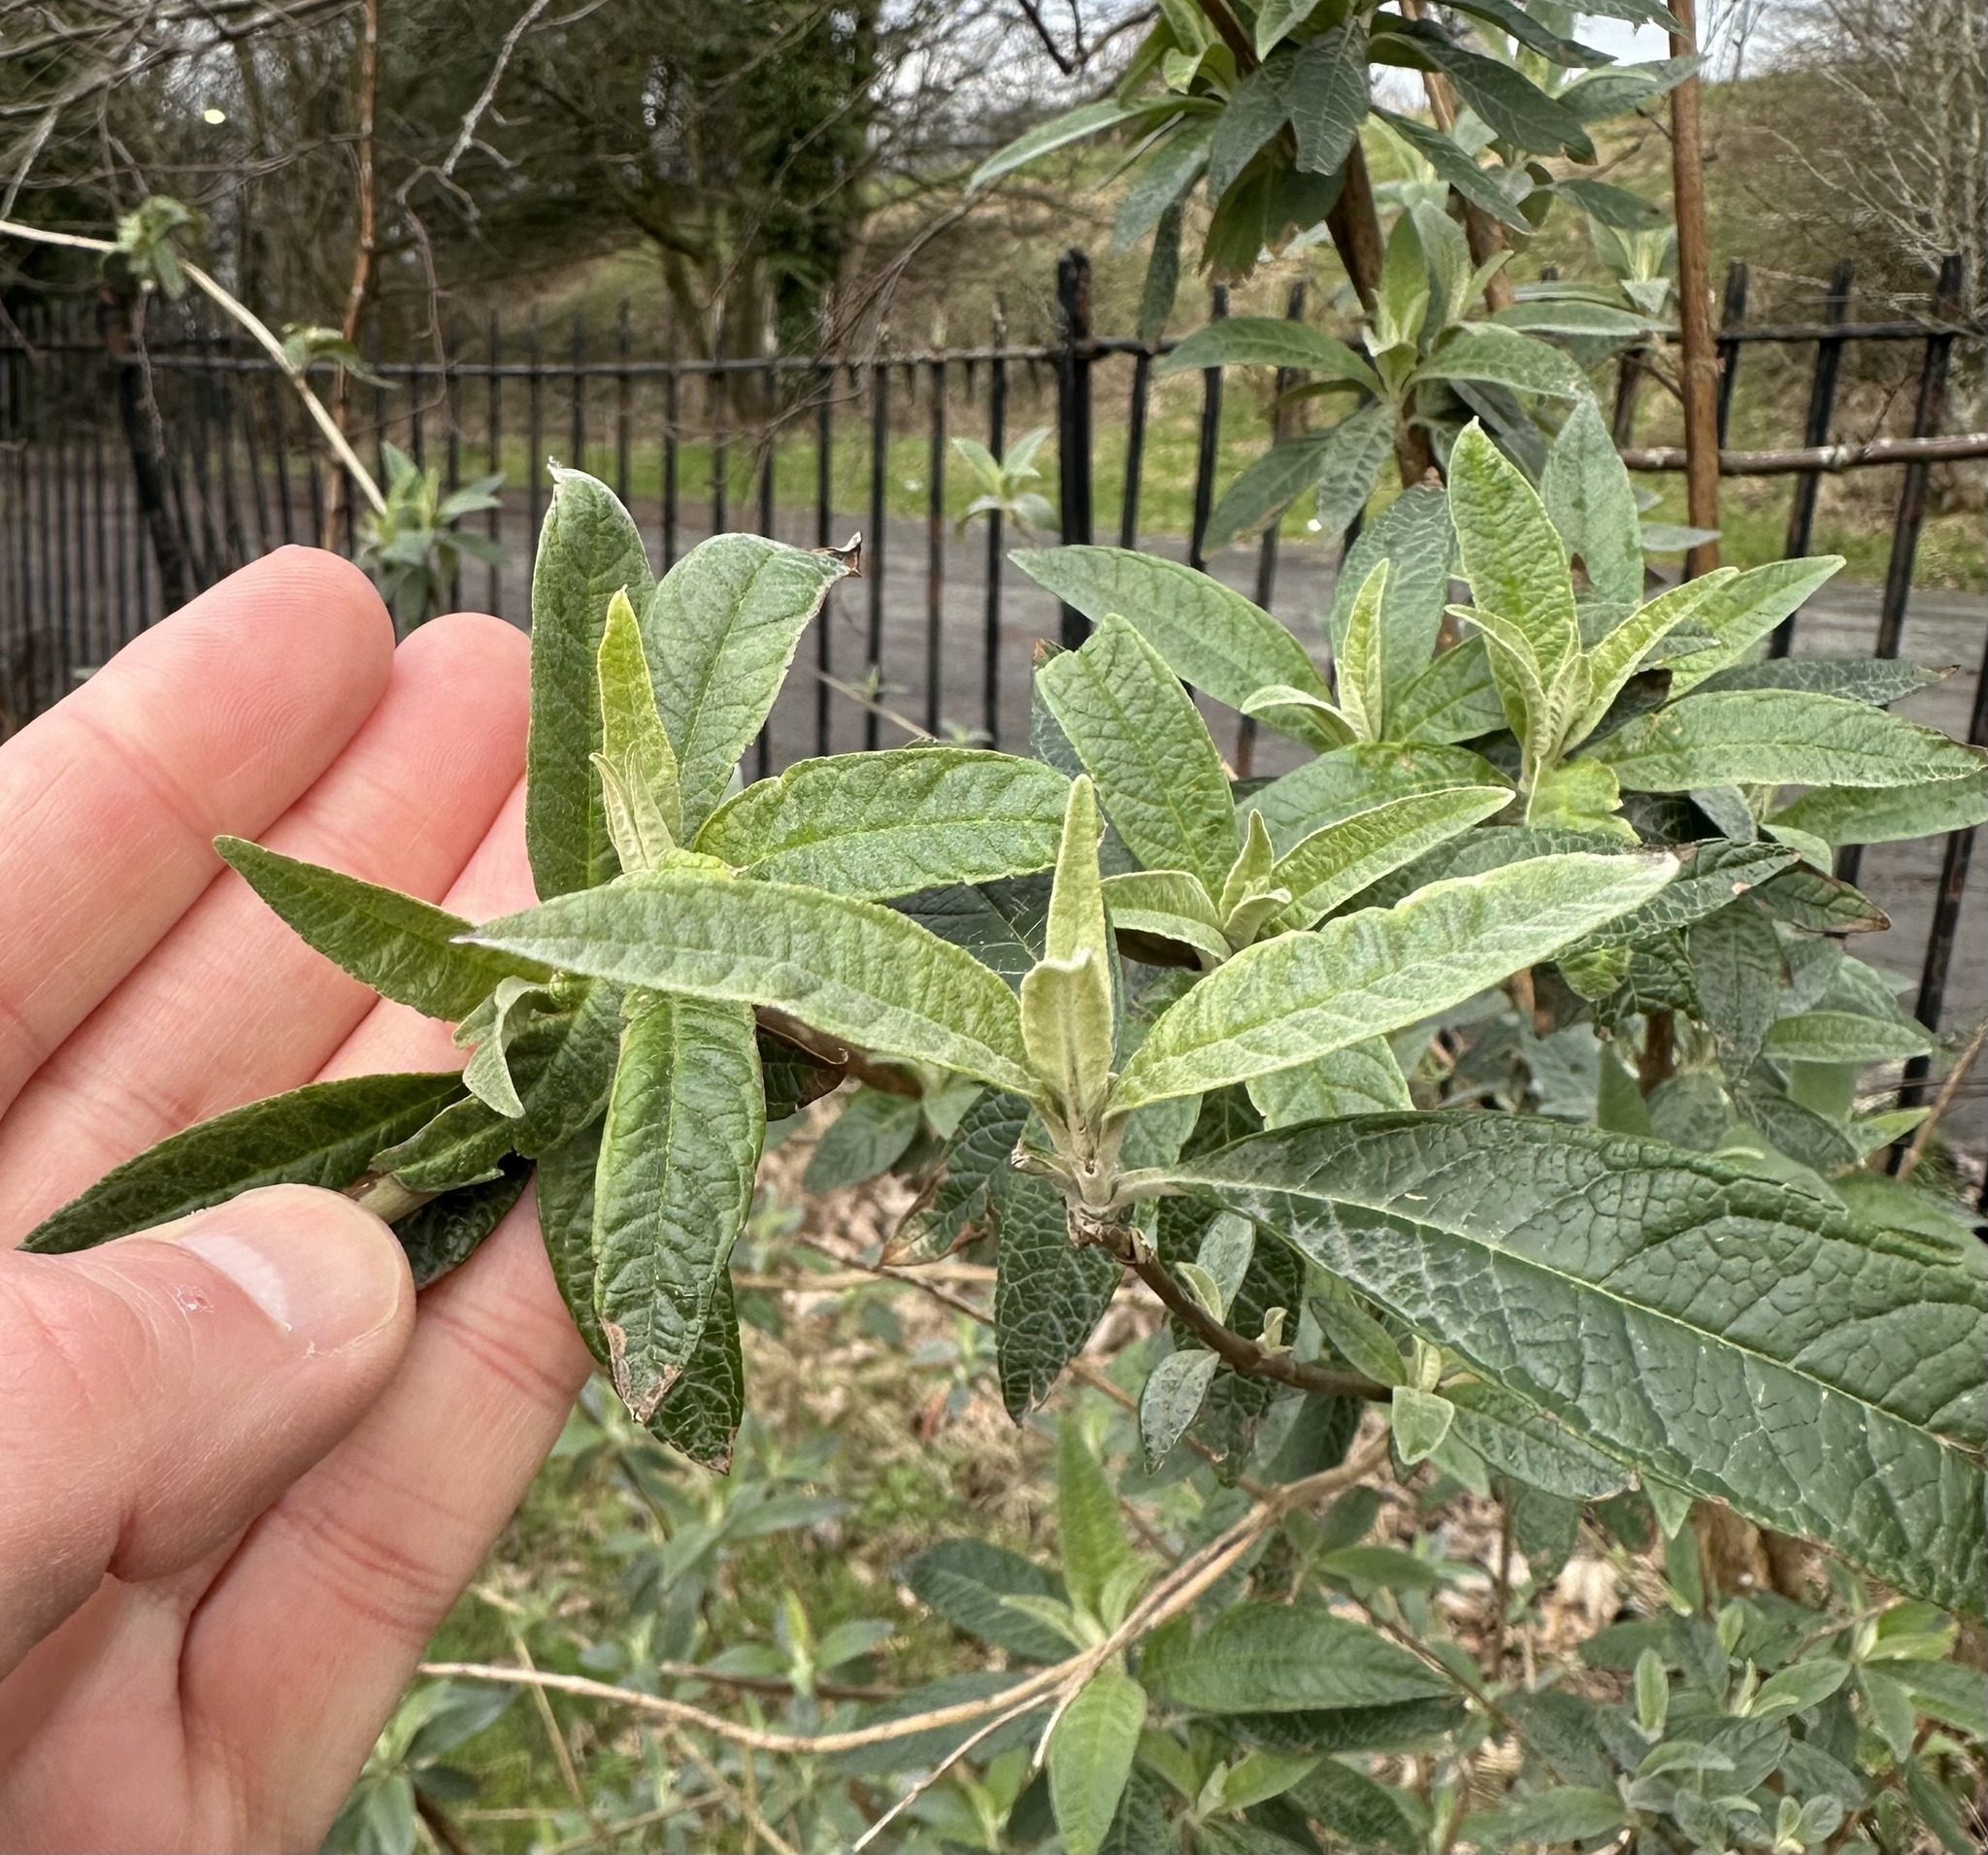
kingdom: Plantae
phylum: Tracheophyta
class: Magnoliopsida
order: Lamiales
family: Scrophulariaceae
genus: Buddleja
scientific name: Buddleja davidii
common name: Butterfly-bush
